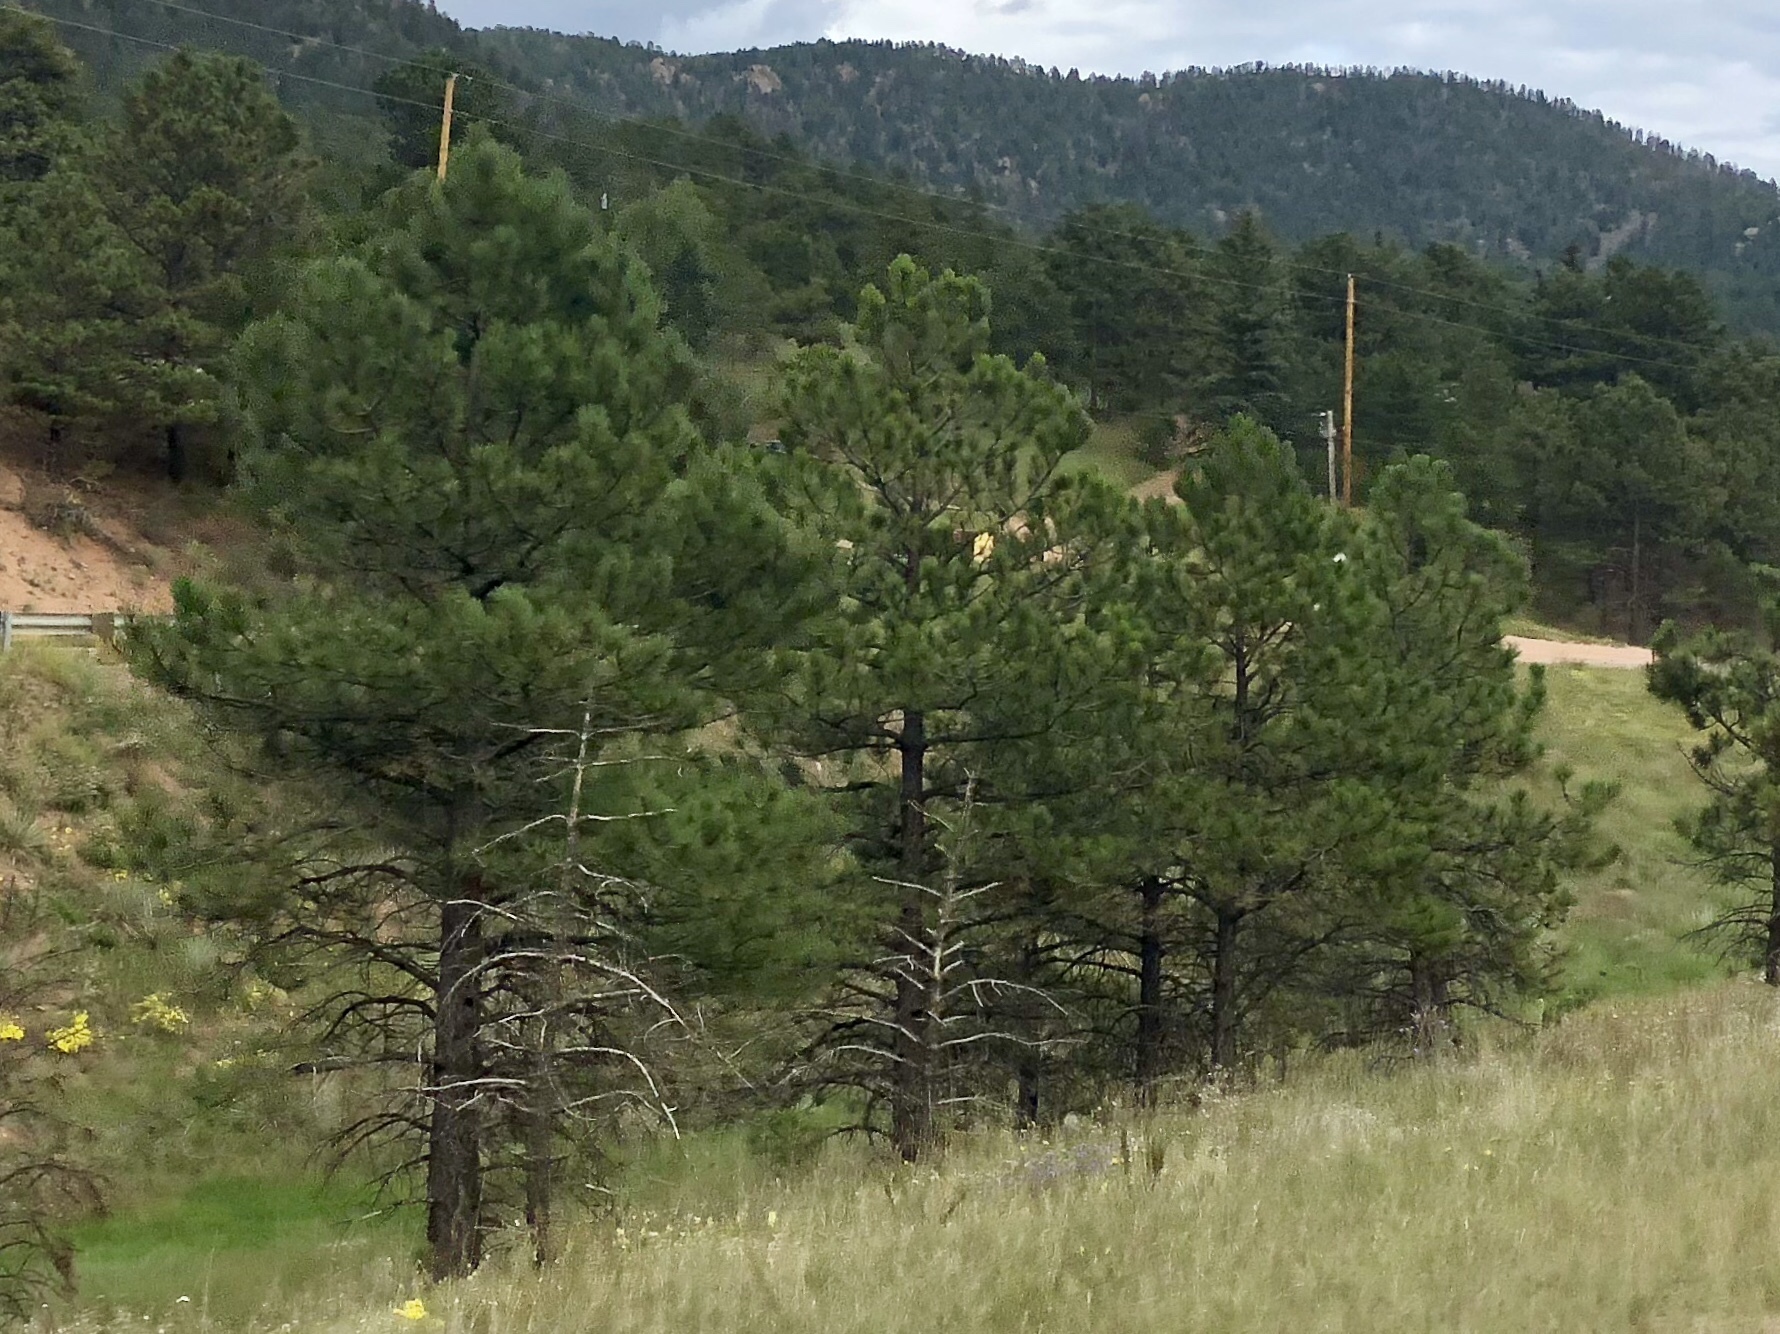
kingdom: Plantae
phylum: Tracheophyta
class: Pinopsida
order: Pinales
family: Pinaceae
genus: Pinus
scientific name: Pinus ponderosa
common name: Western yellow-pine
